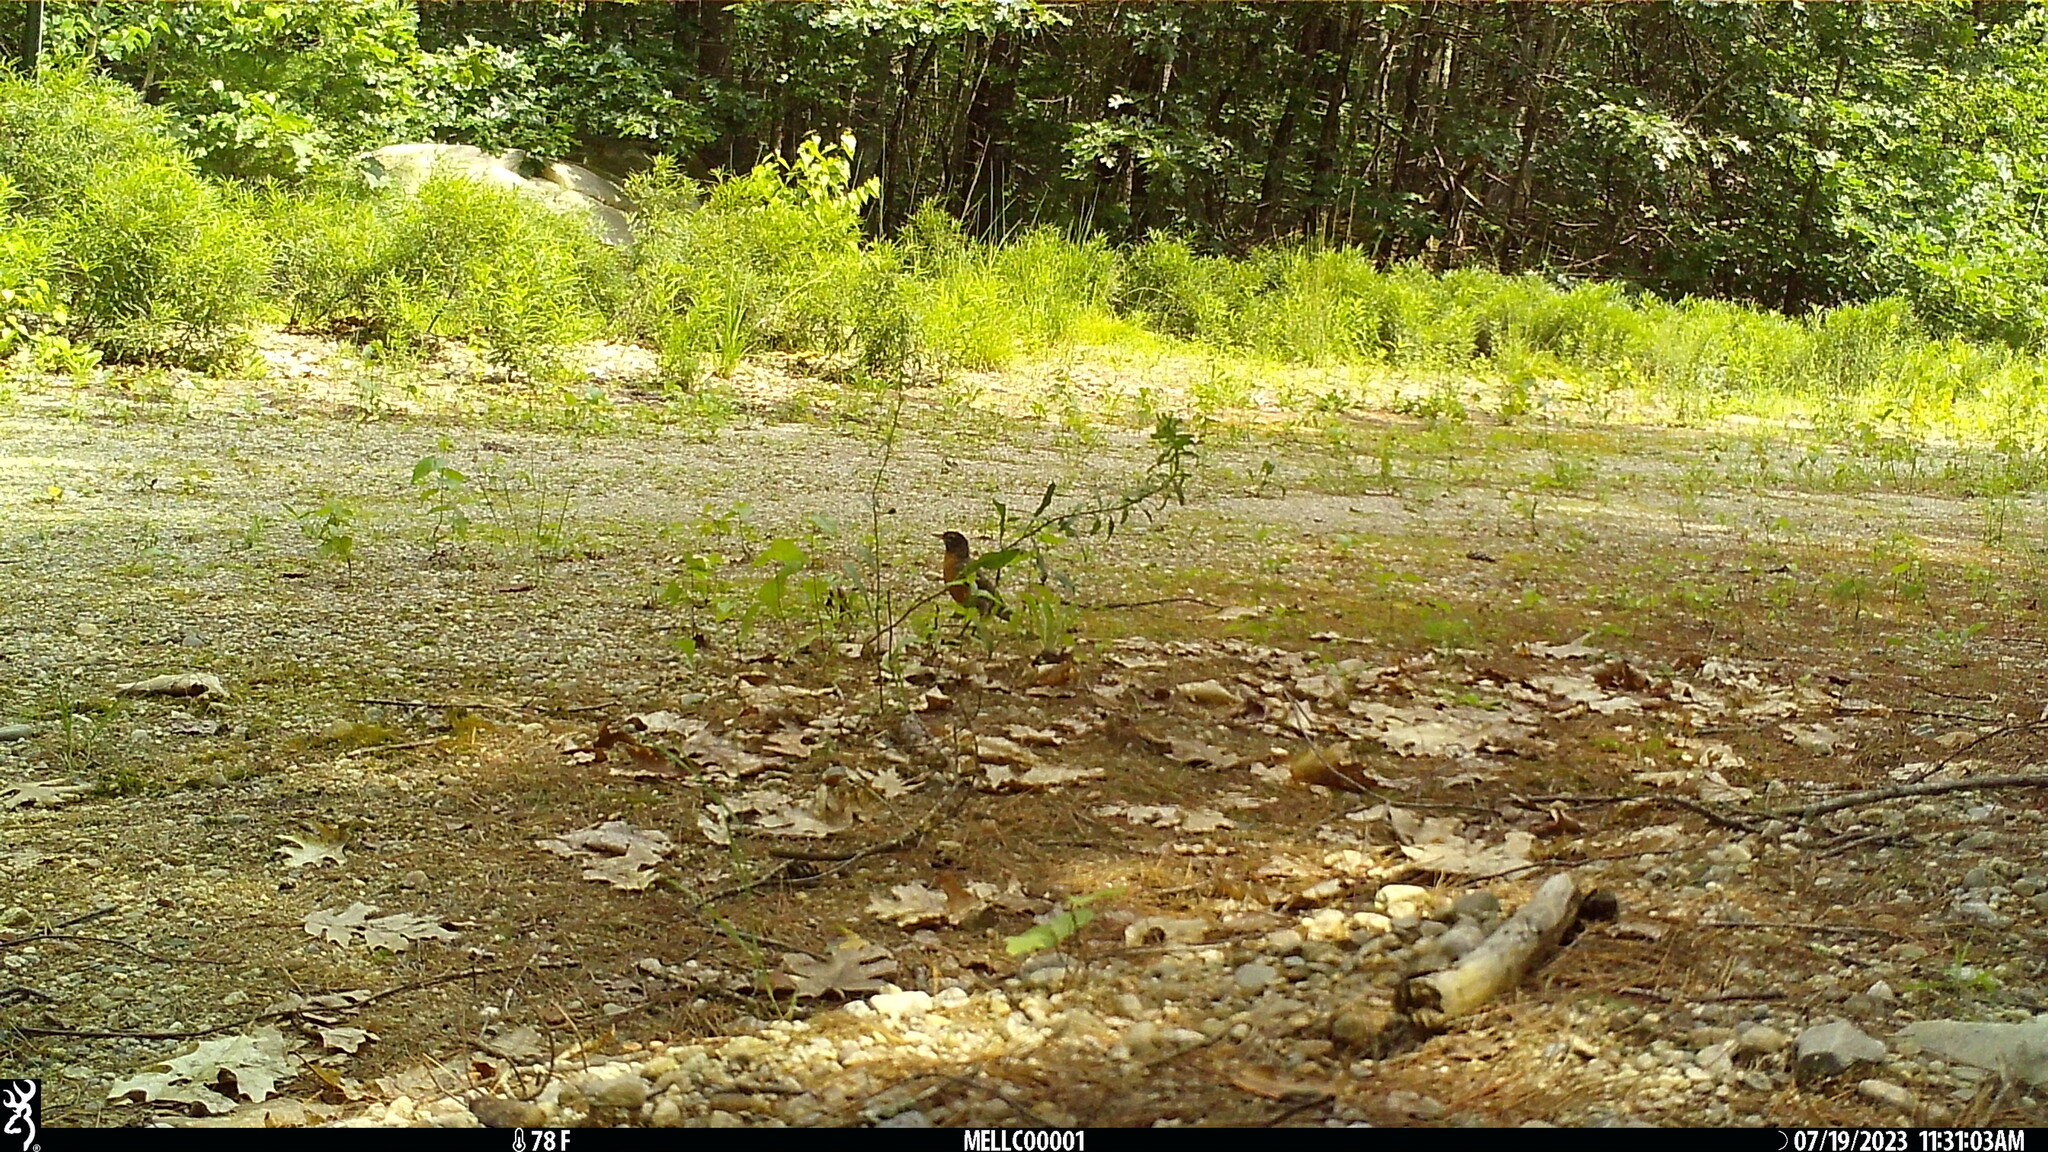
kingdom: Animalia
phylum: Chordata
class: Aves
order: Passeriformes
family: Turdidae
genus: Turdus
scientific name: Turdus migratorius
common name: American robin
